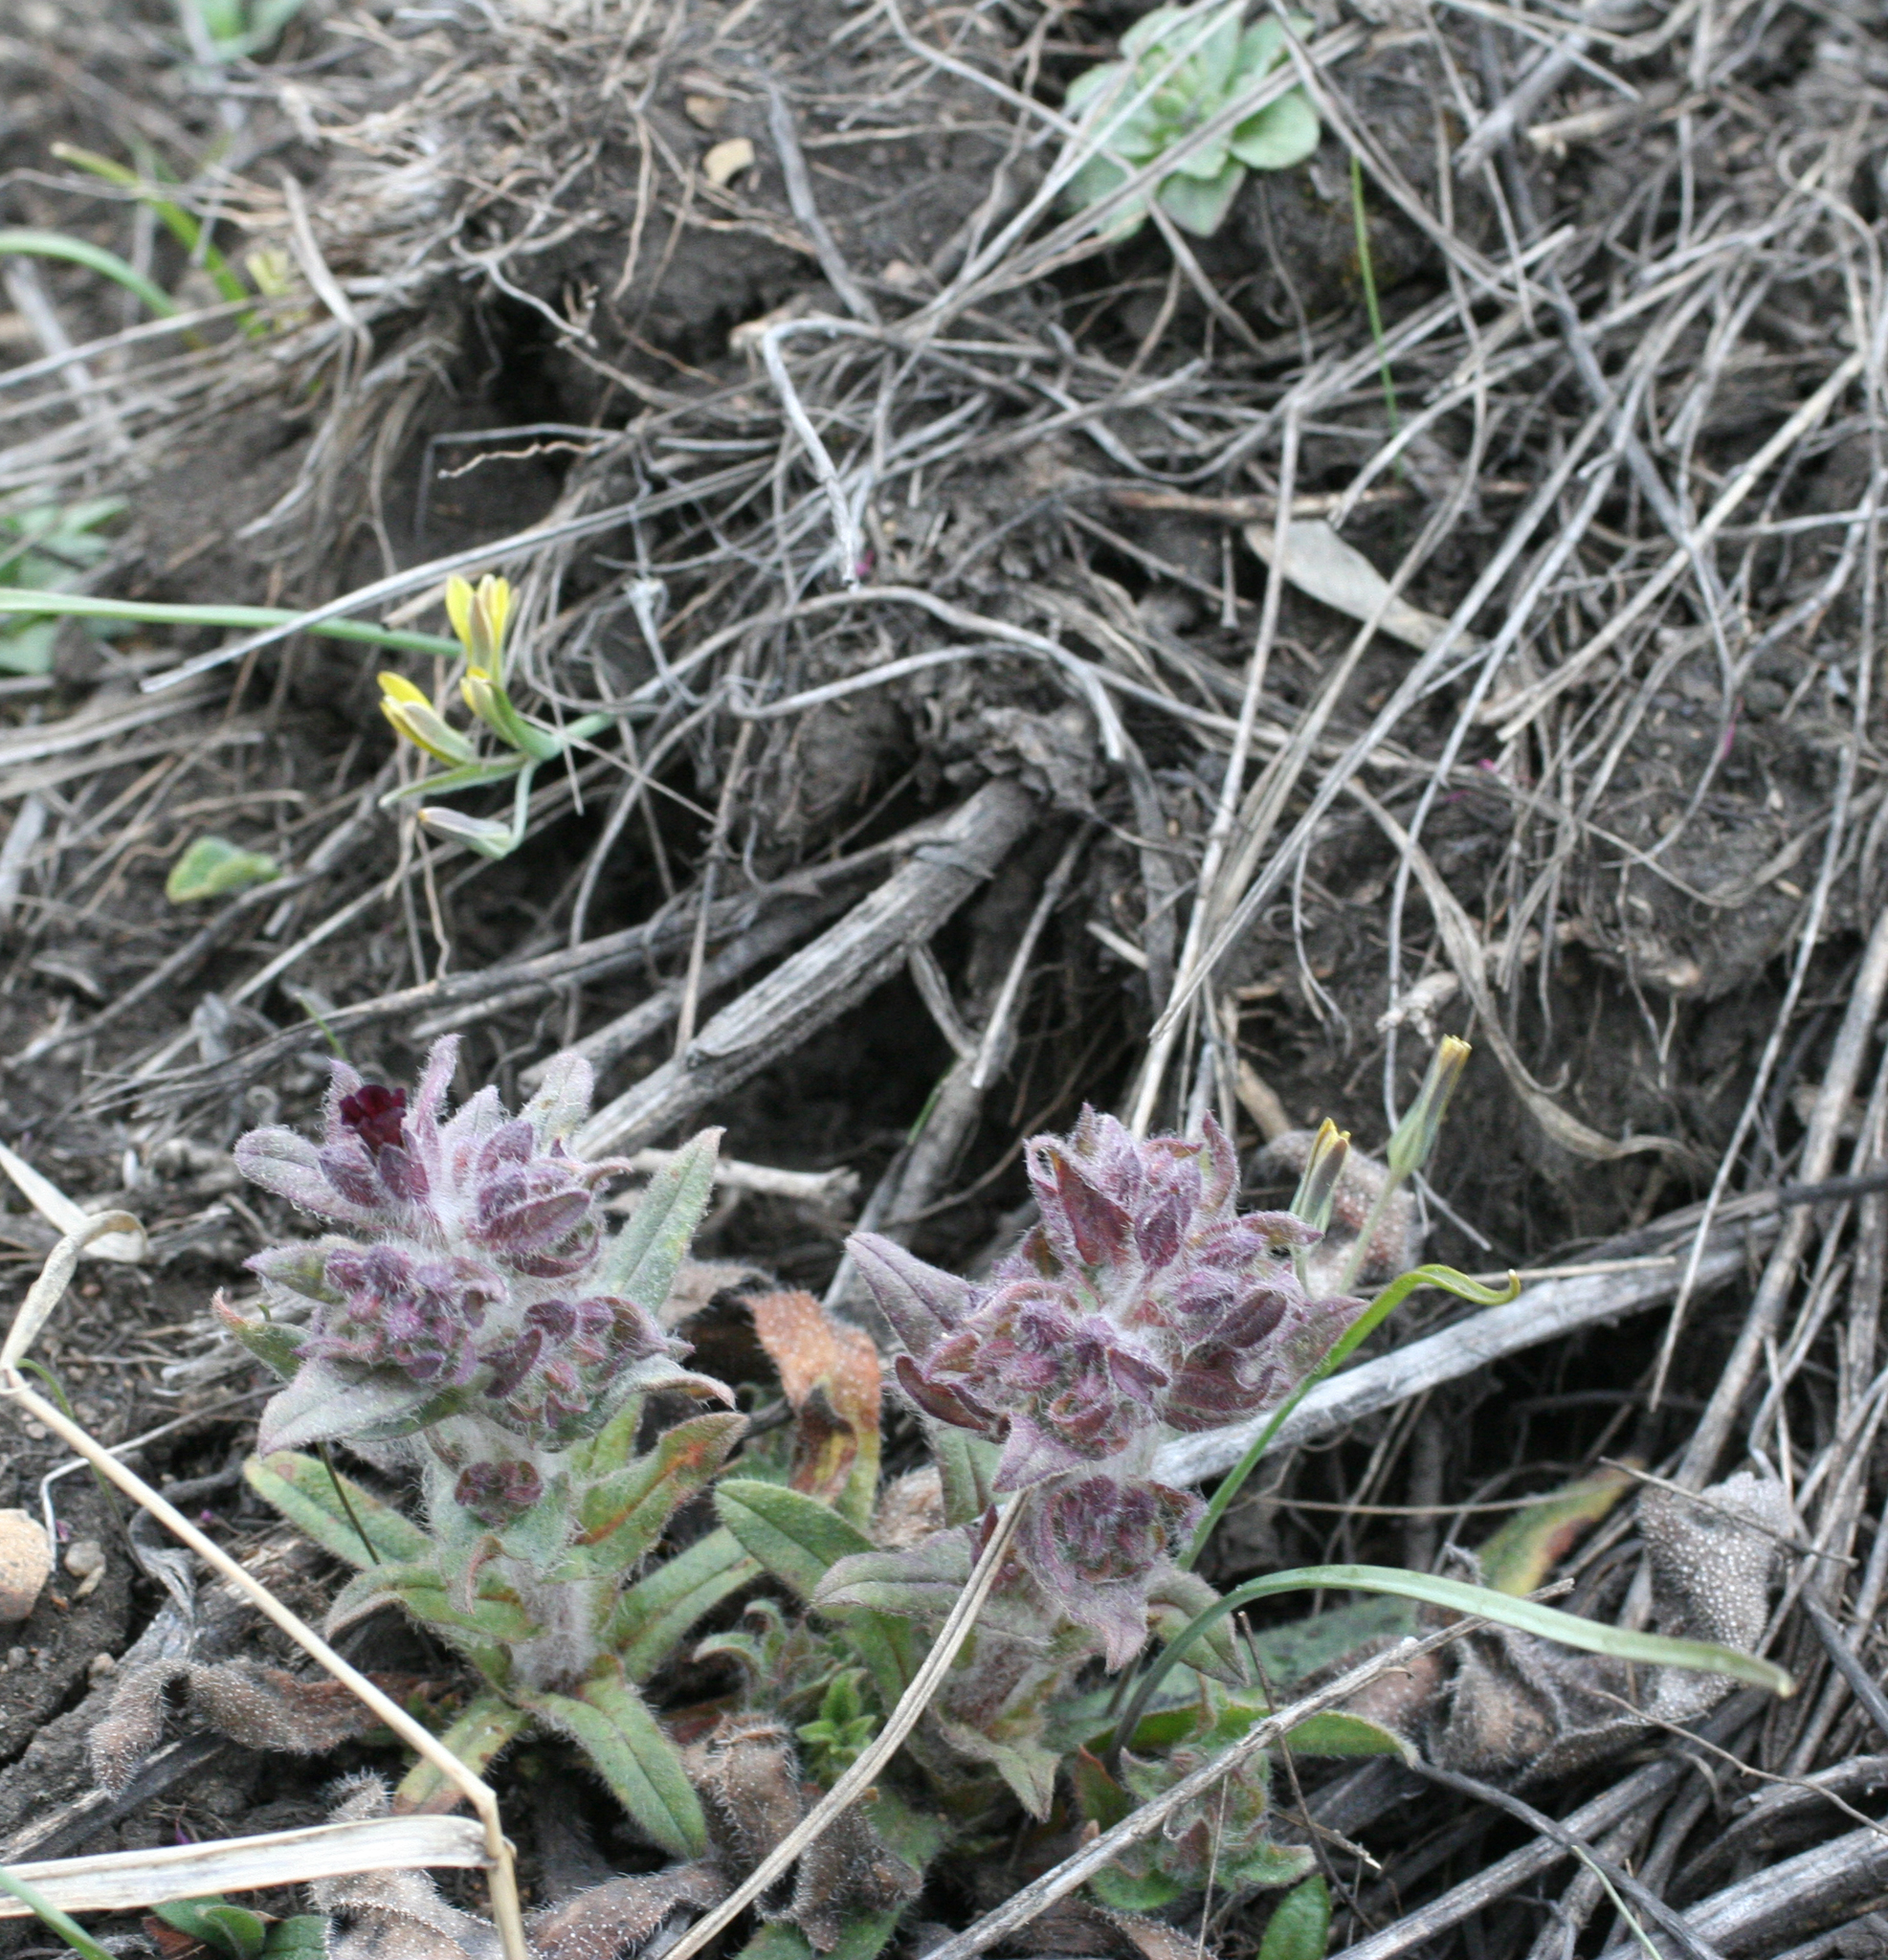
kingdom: Plantae
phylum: Tracheophyta
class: Magnoliopsida
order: Boraginales
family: Boraginaceae
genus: Nonea
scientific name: Nonea pulla
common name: Brown nonea
